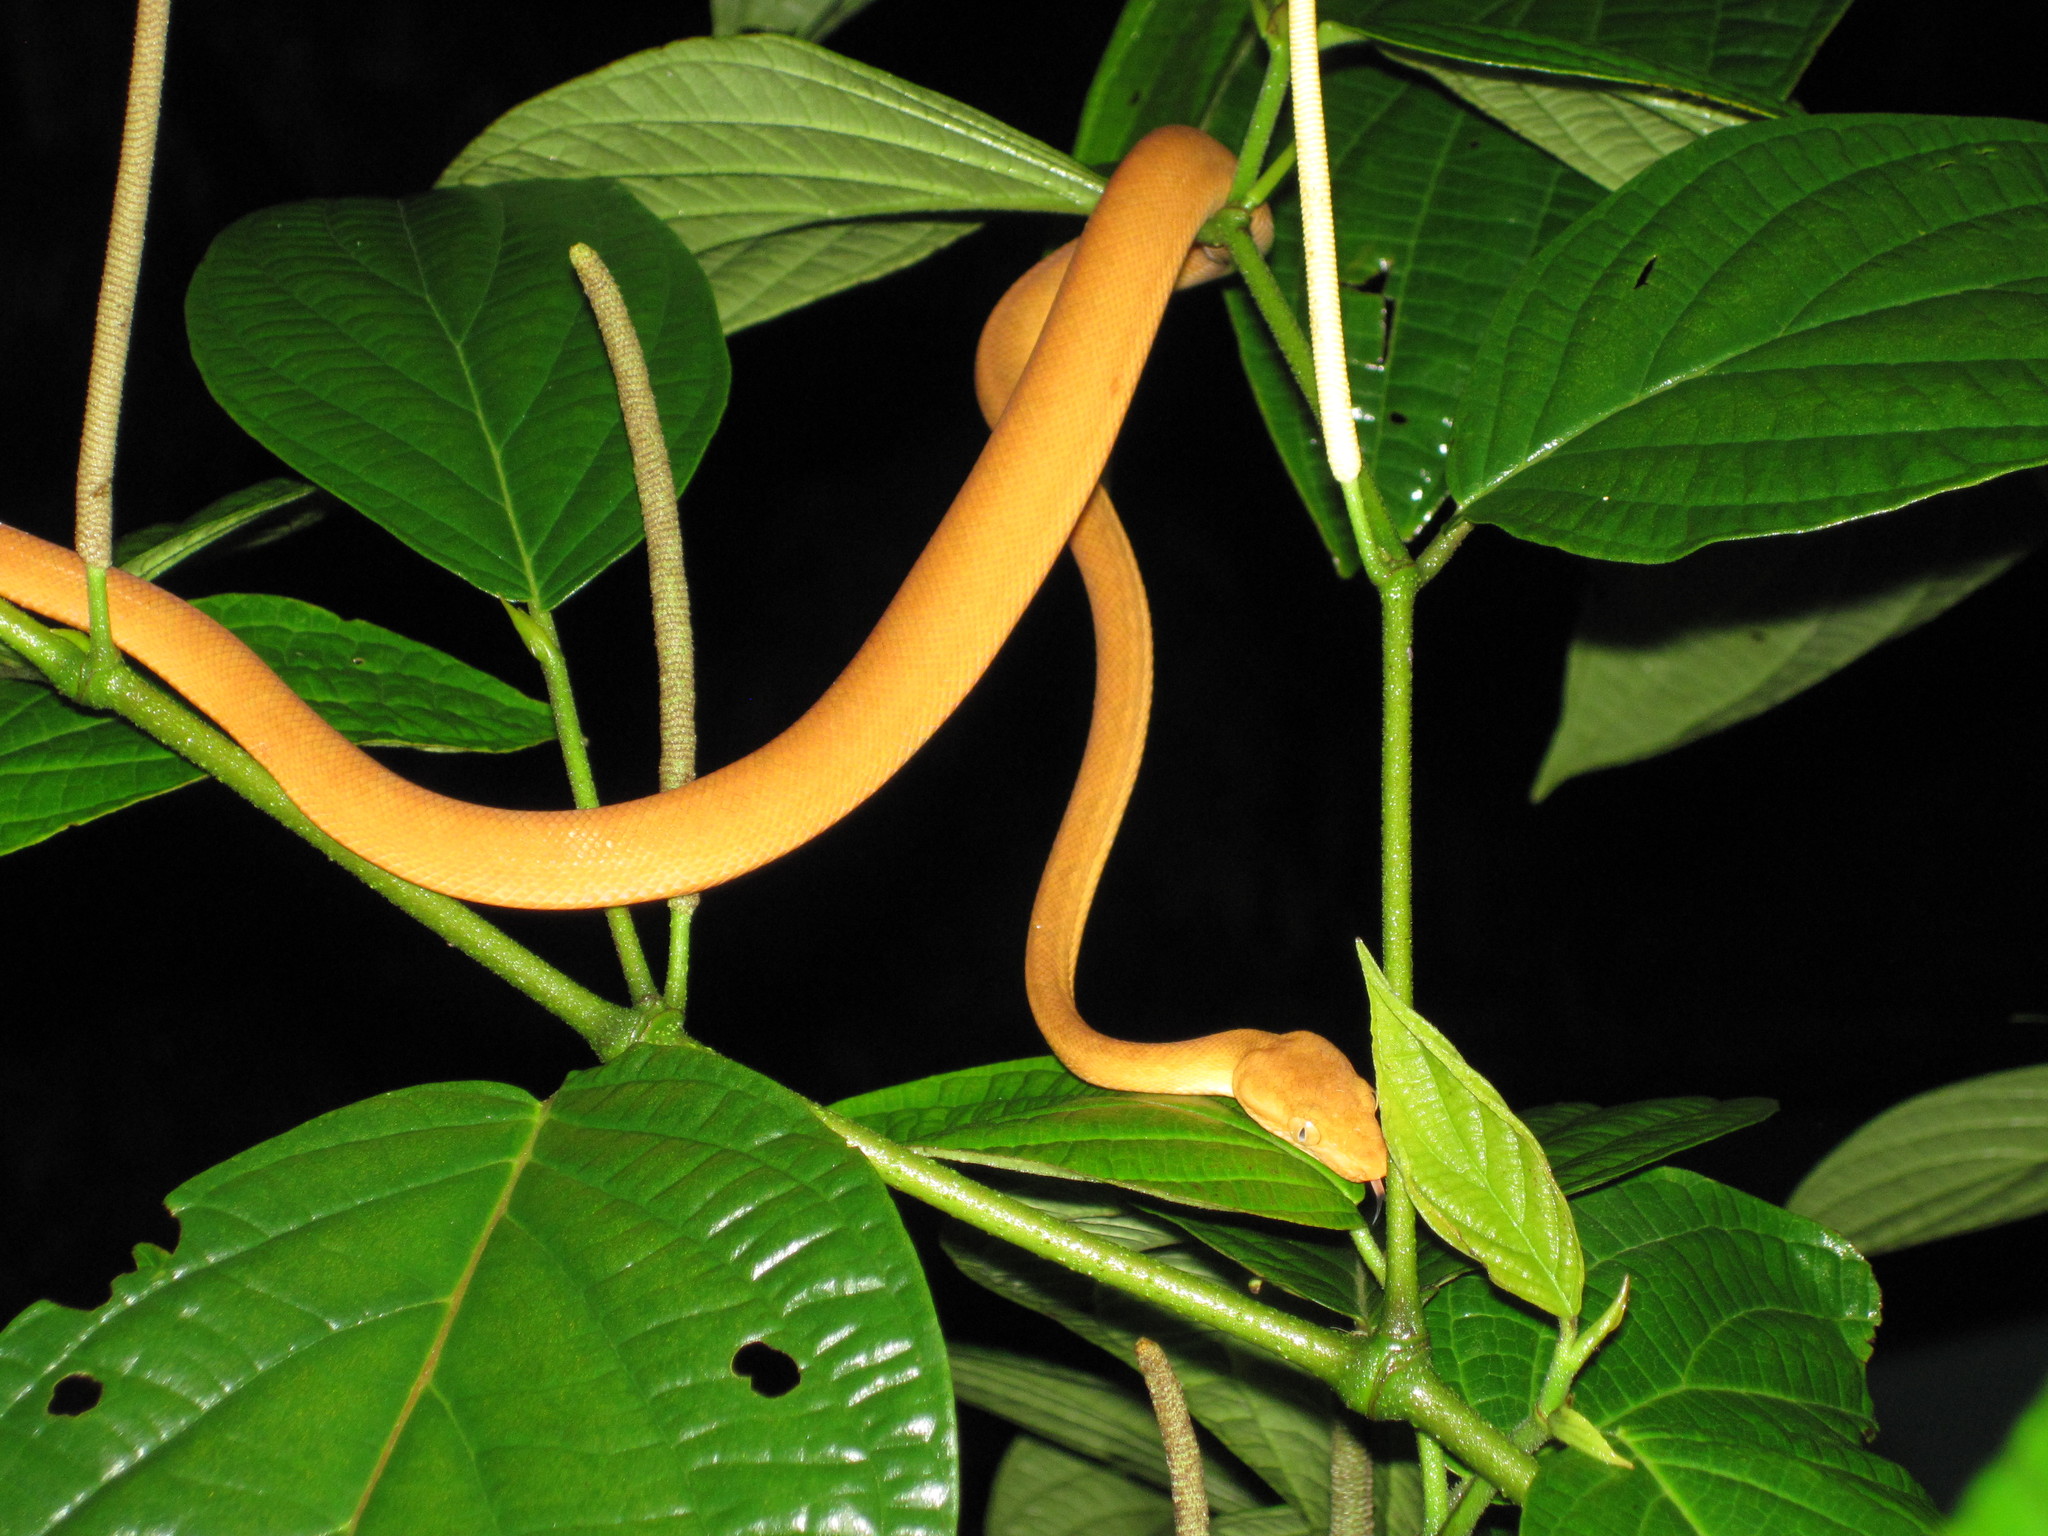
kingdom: Animalia
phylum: Chordata
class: Squamata
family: Boidae
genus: Corallus
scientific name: Corallus ruschenbergerii
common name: Dormilona
